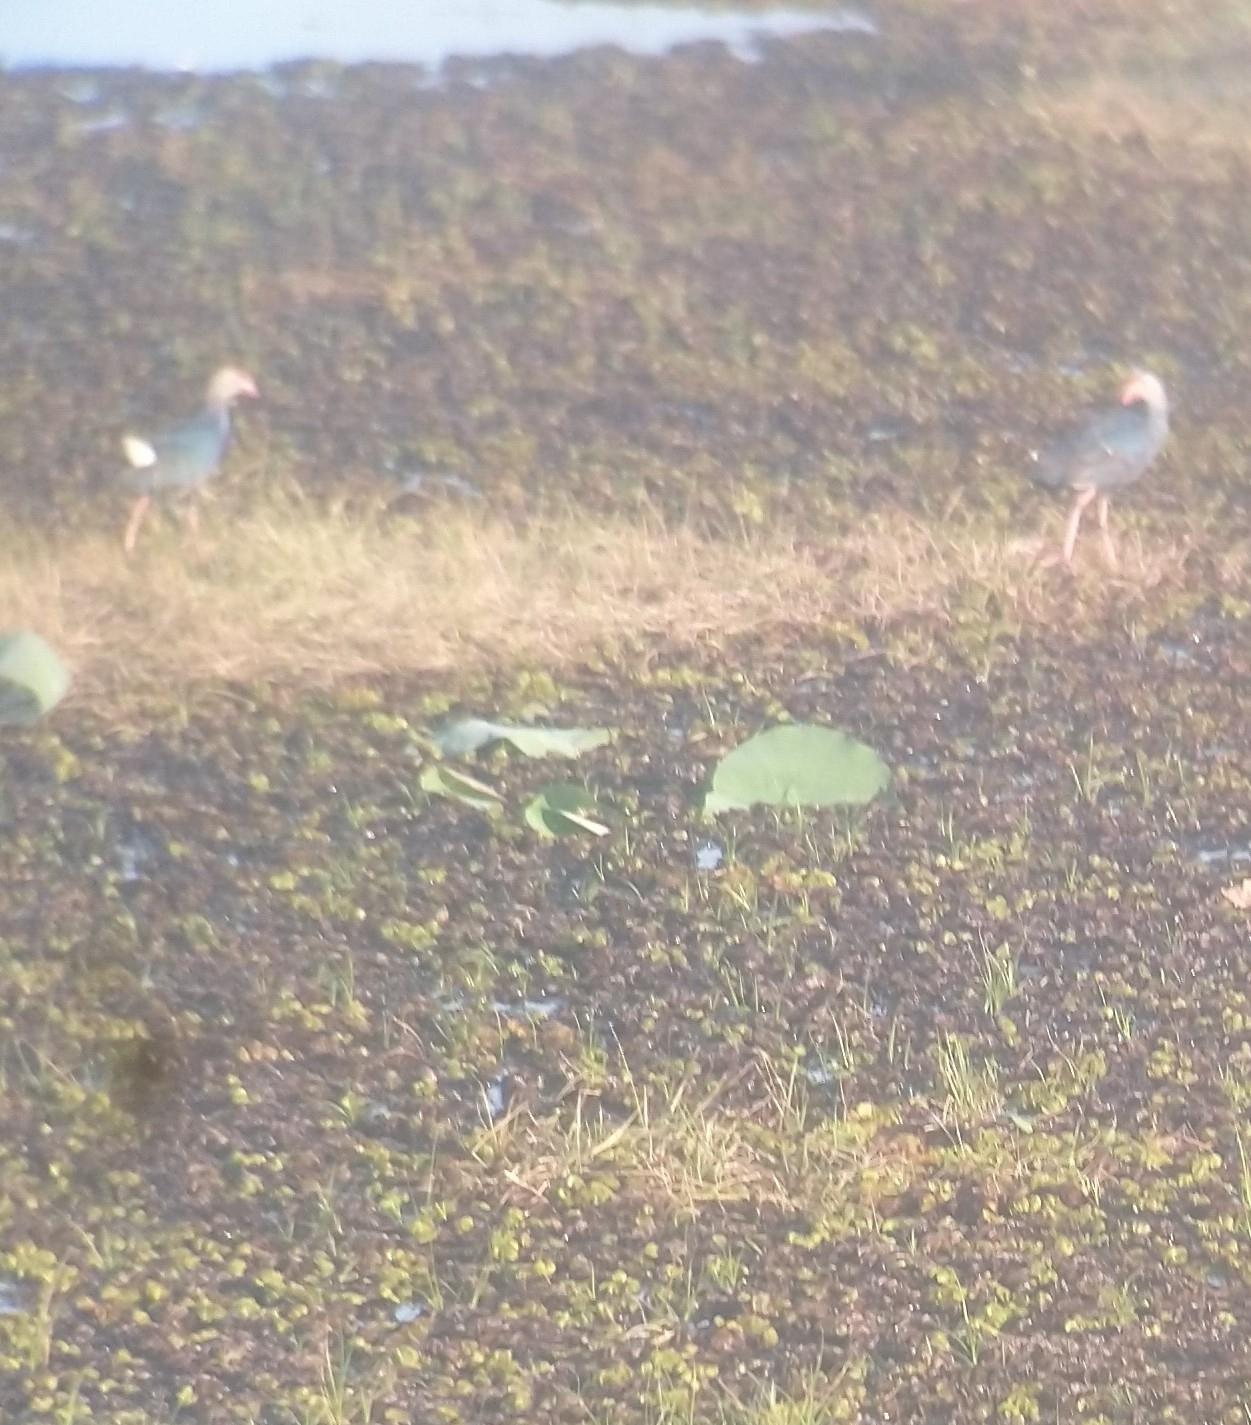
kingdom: Animalia
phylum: Chordata
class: Aves
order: Gruiformes
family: Rallidae
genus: Porphyrio
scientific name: Porphyrio porphyrio
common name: Purple swamphen
